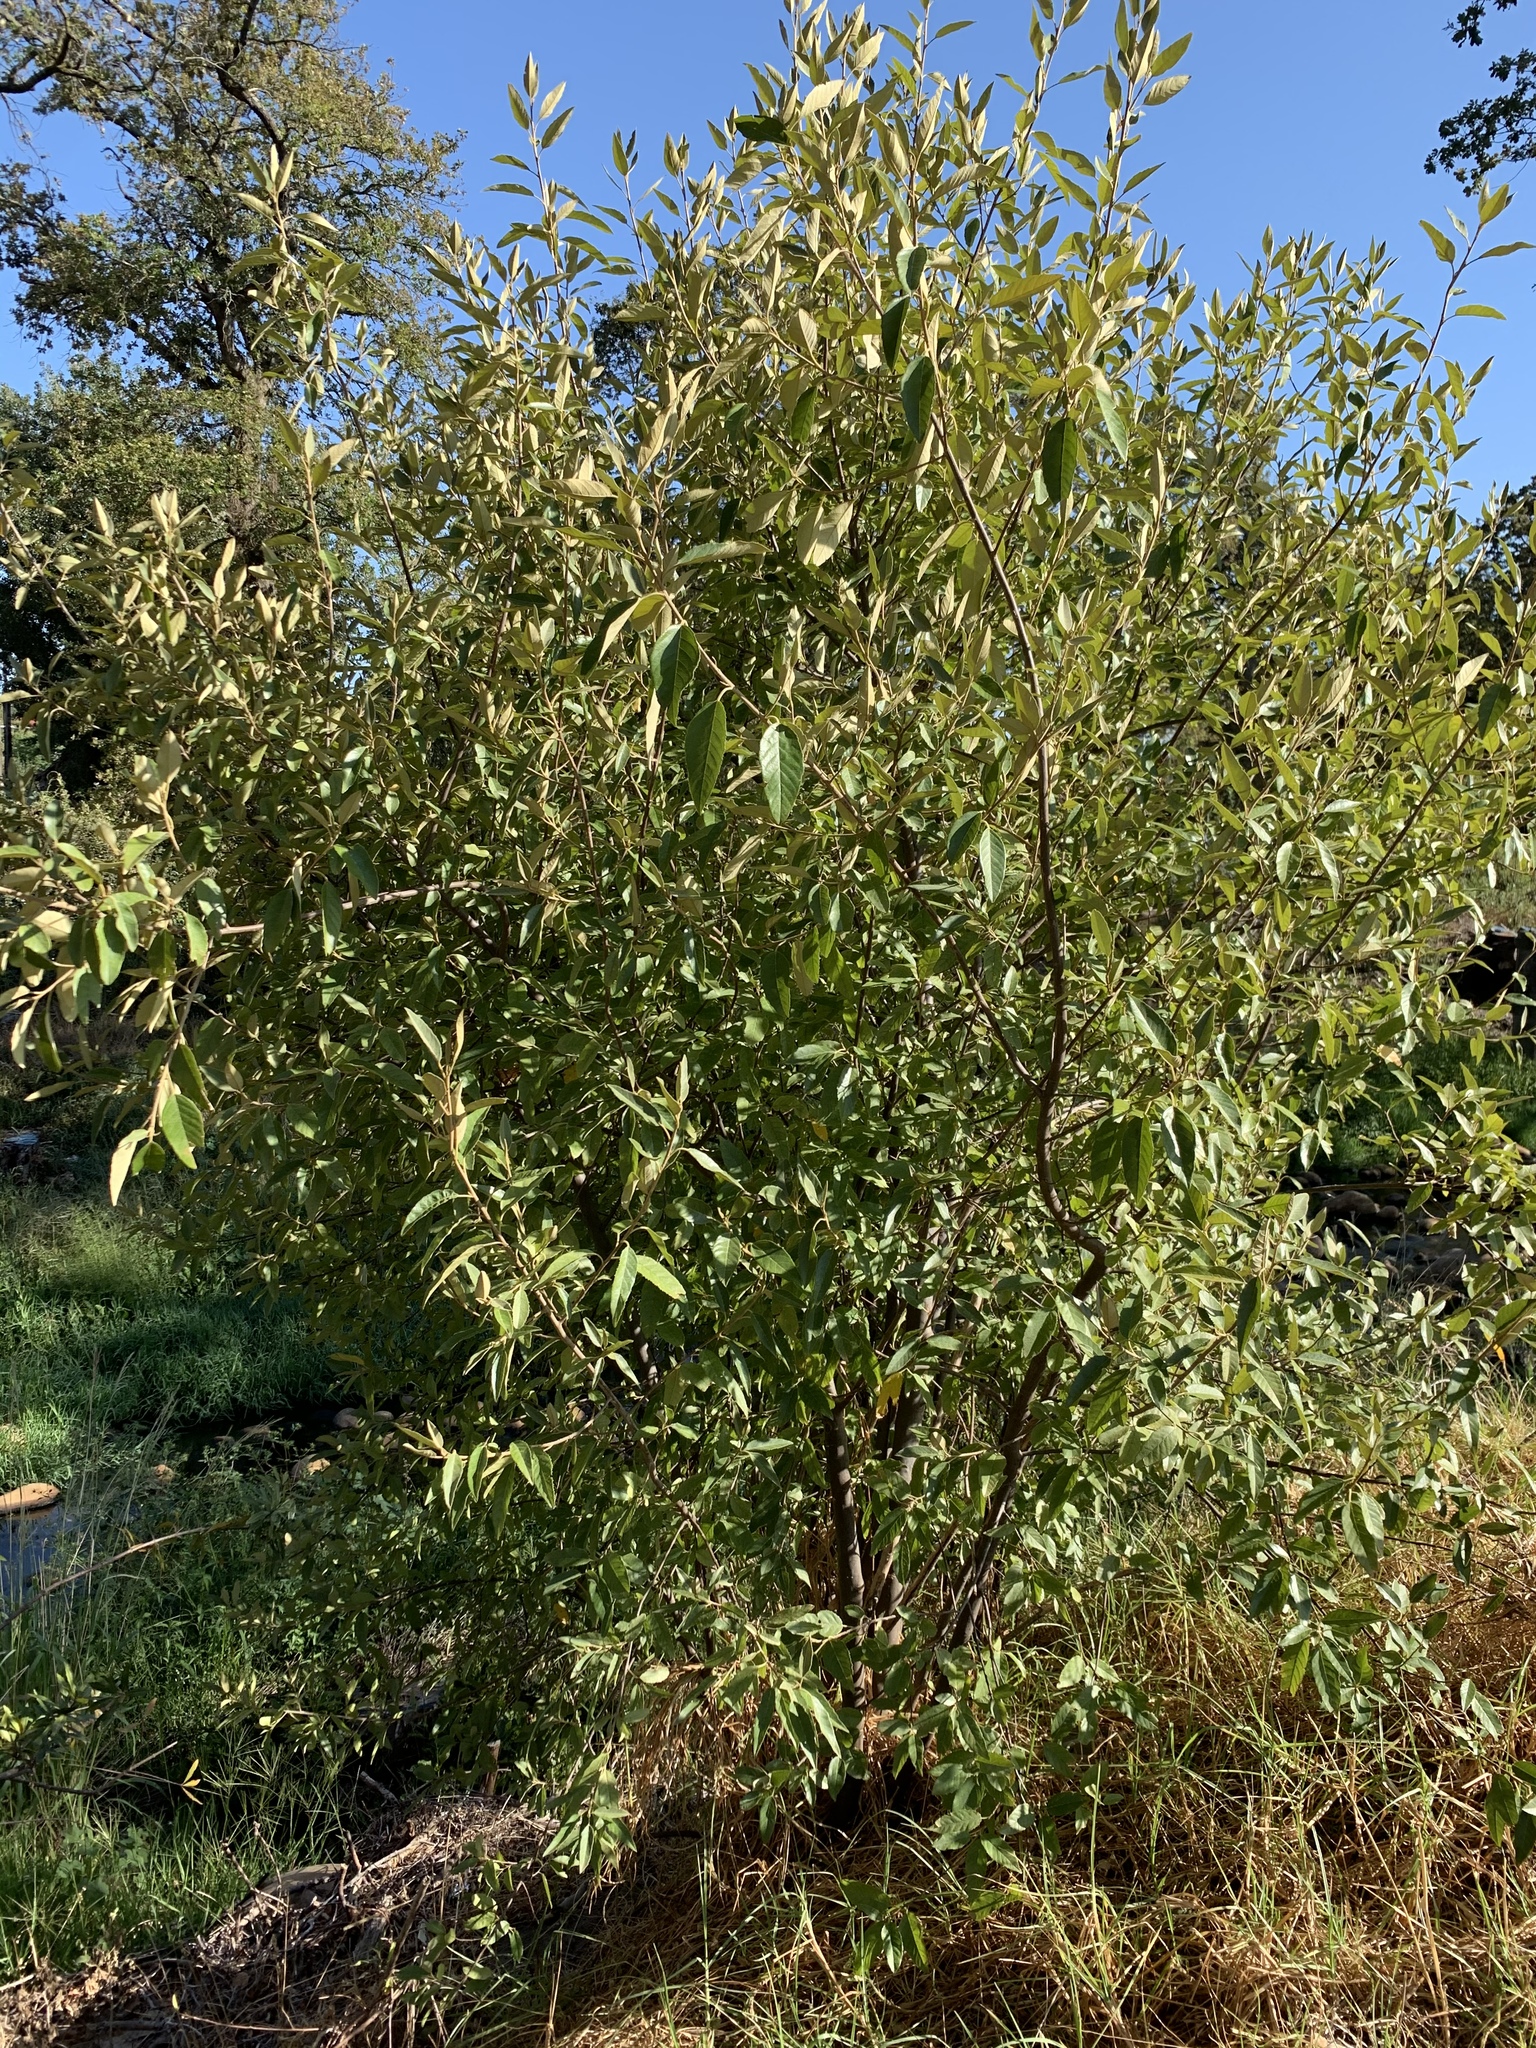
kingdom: Plantae
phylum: Tracheophyta
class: Magnoliopsida
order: Malpighiales
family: Achariaceae
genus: Kiggelaria
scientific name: Kiggelaria africana
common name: Wild peach
